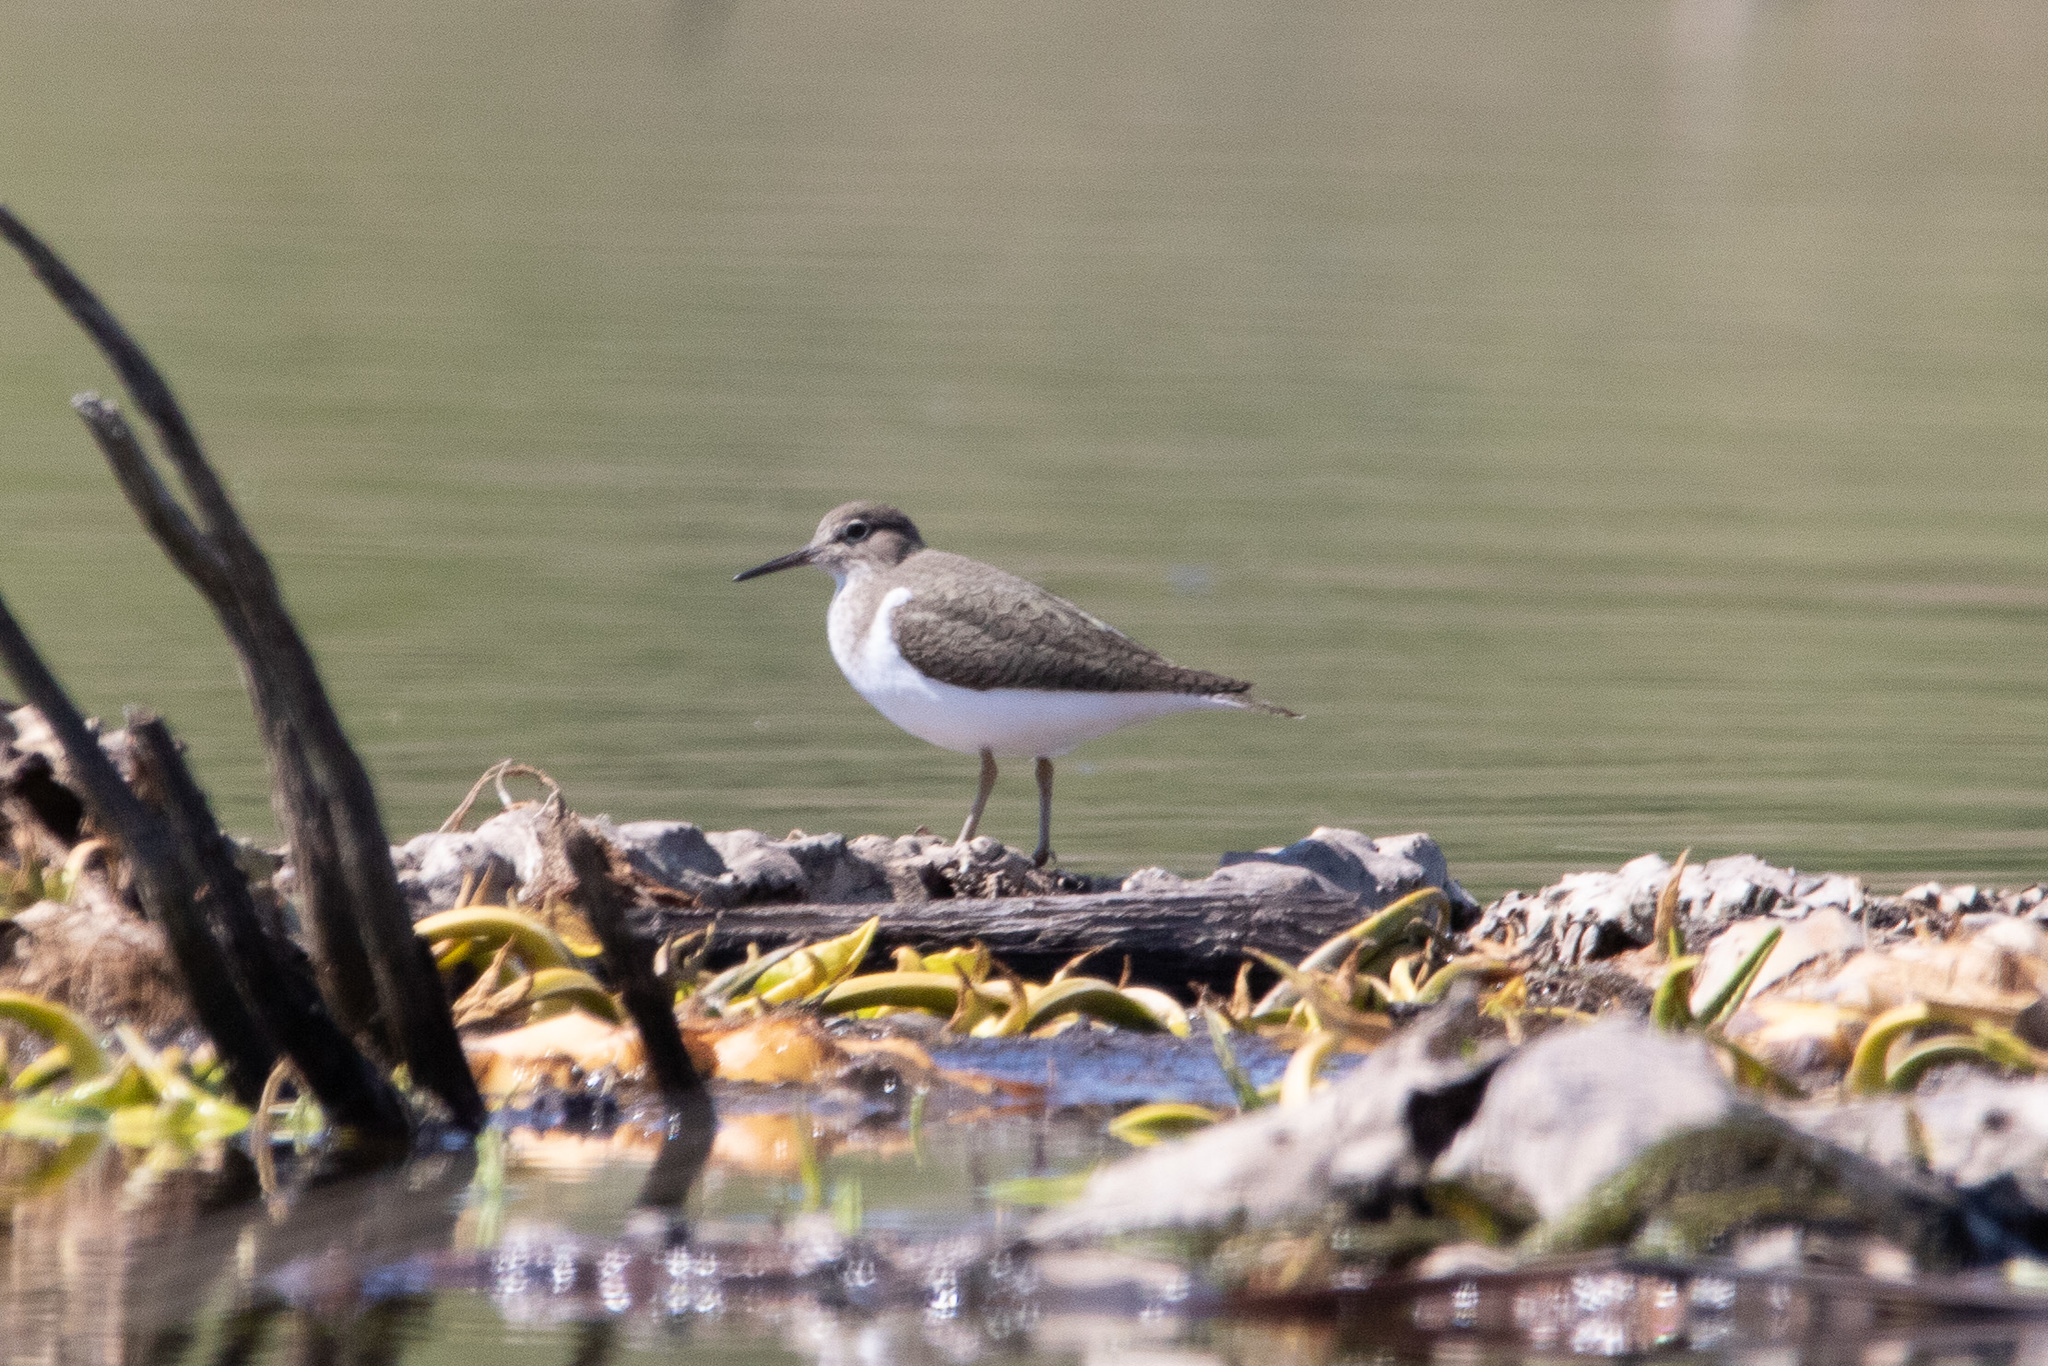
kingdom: Animalia
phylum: Chordata
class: Aves
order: Charadriiformes
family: Scolopacidae
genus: Actitis
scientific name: Actitis hypoleucos
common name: Common sandpiper
